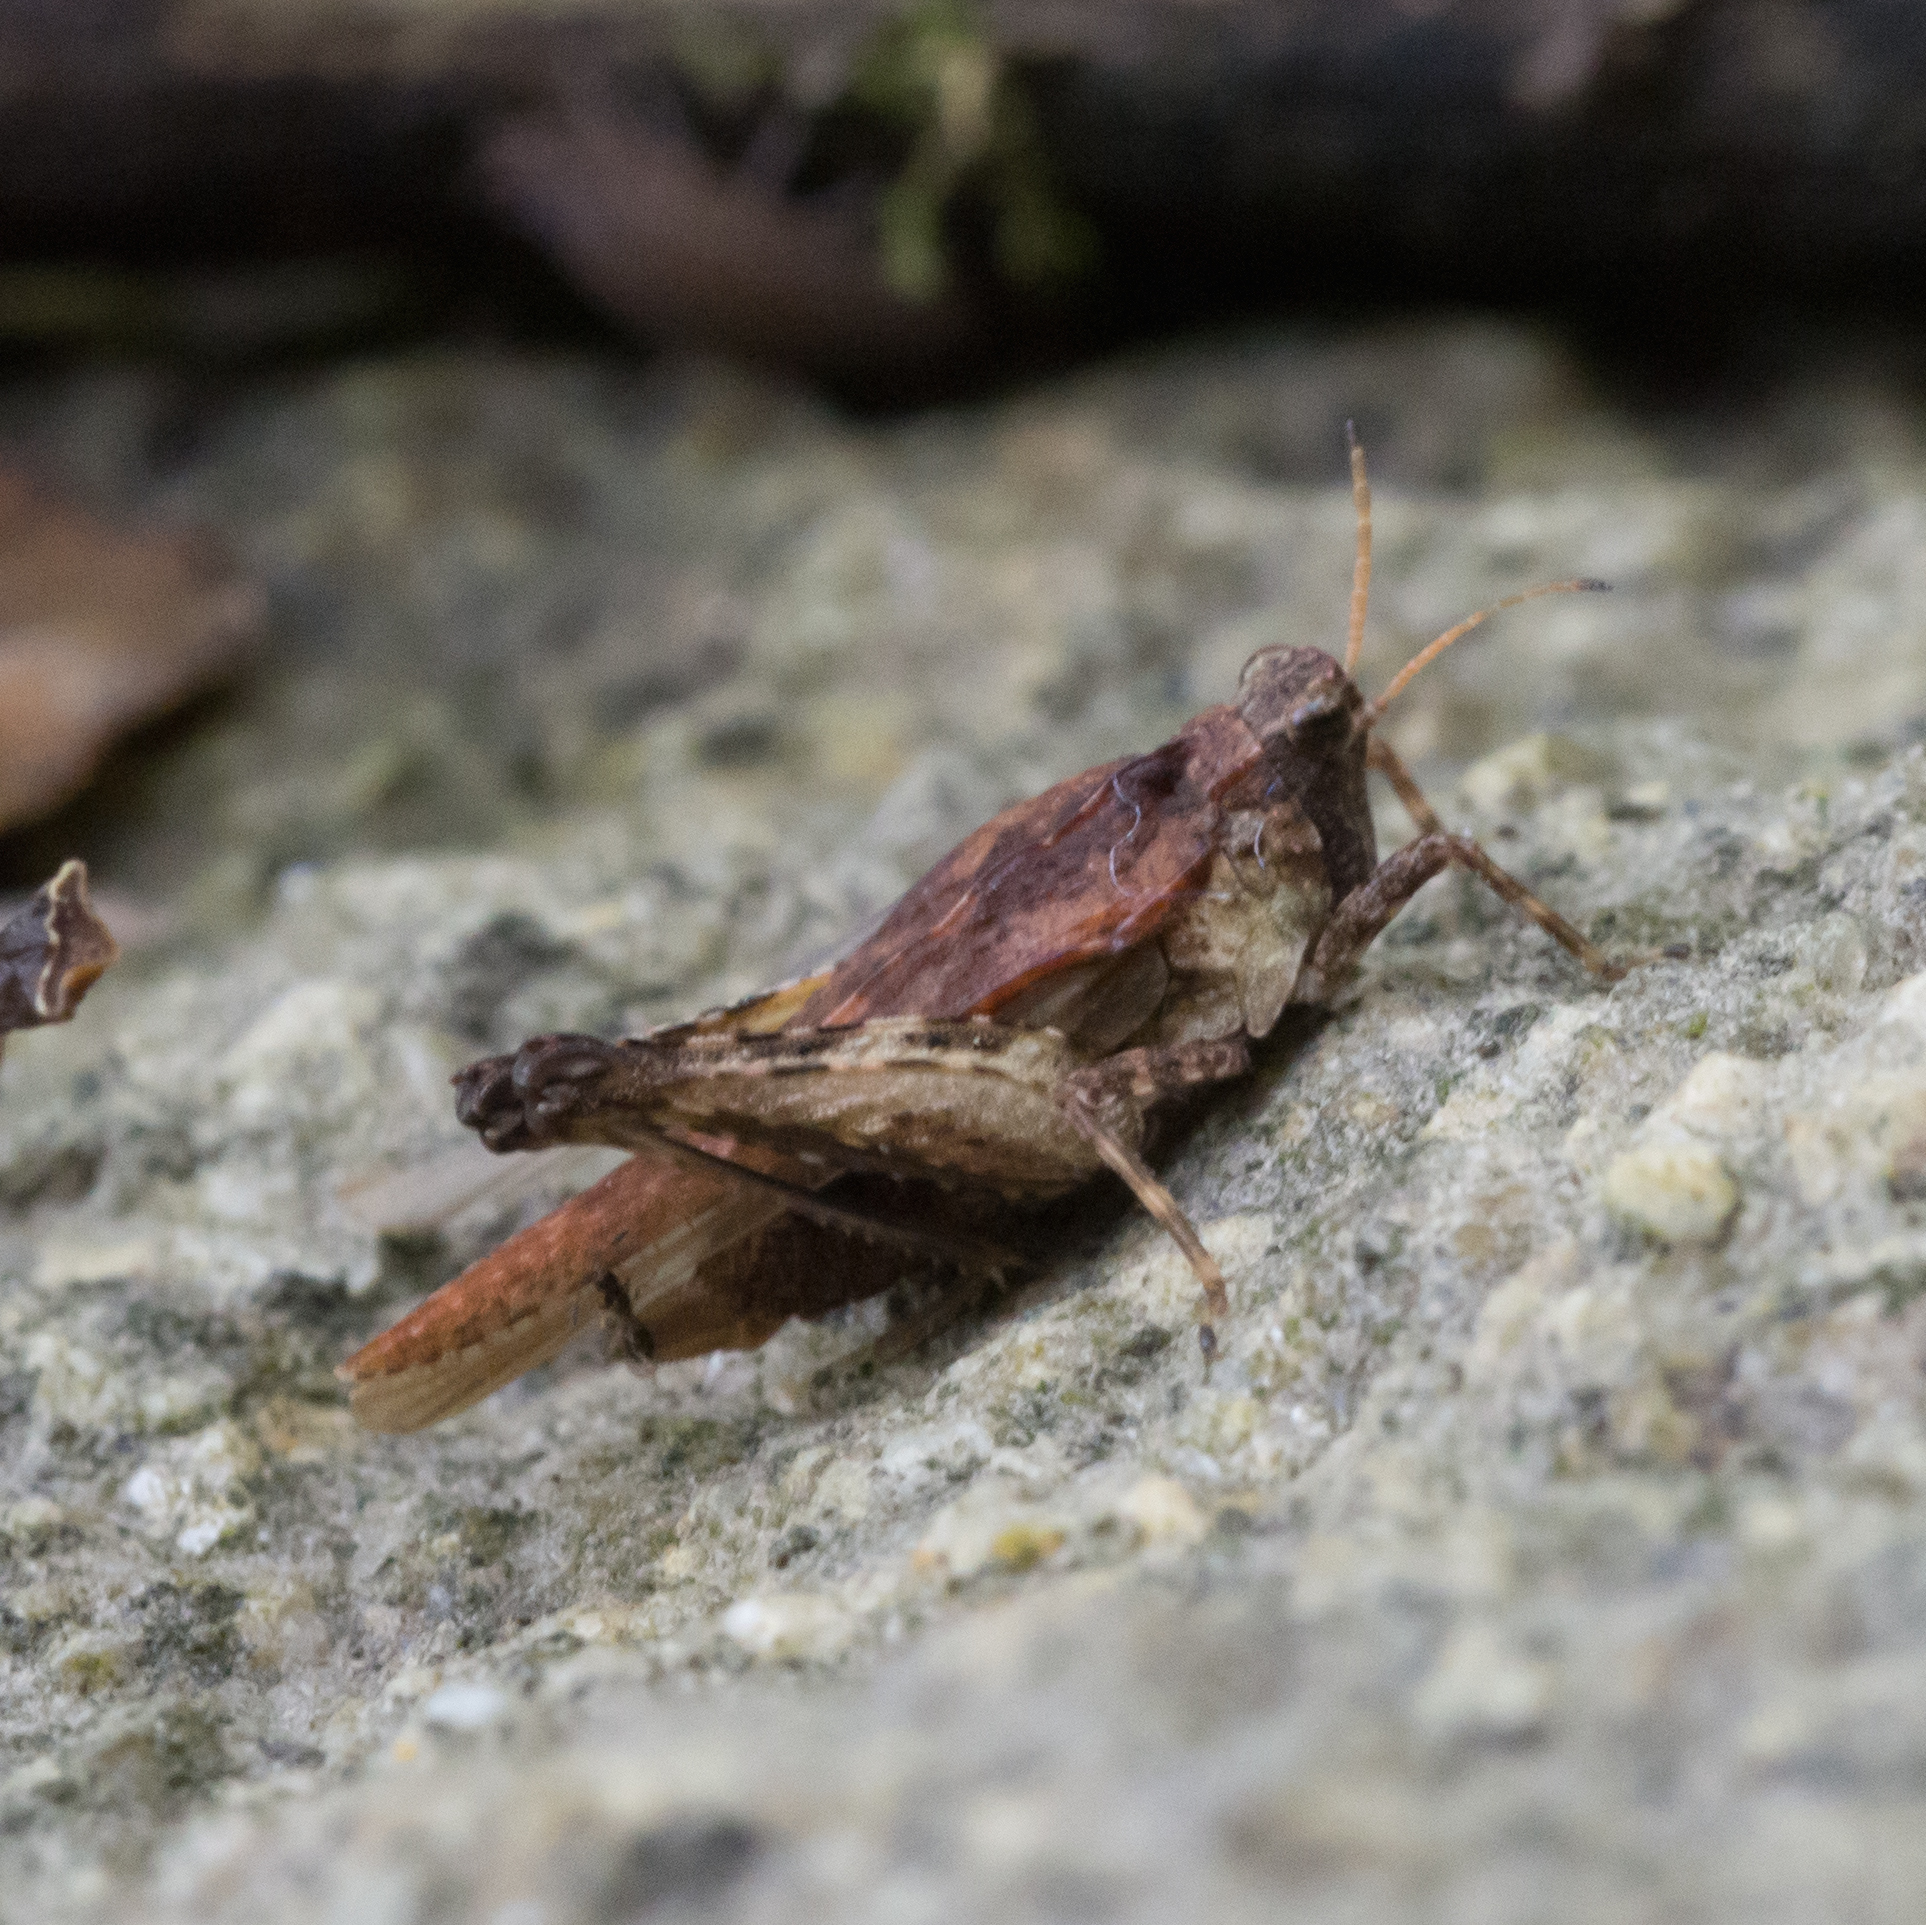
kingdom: Animalia
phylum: Arthropoda
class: Insecta
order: Orthoptera
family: Tetrigidae
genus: Tetrix
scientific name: Tetrix subulata
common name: Slender ground-hopper
